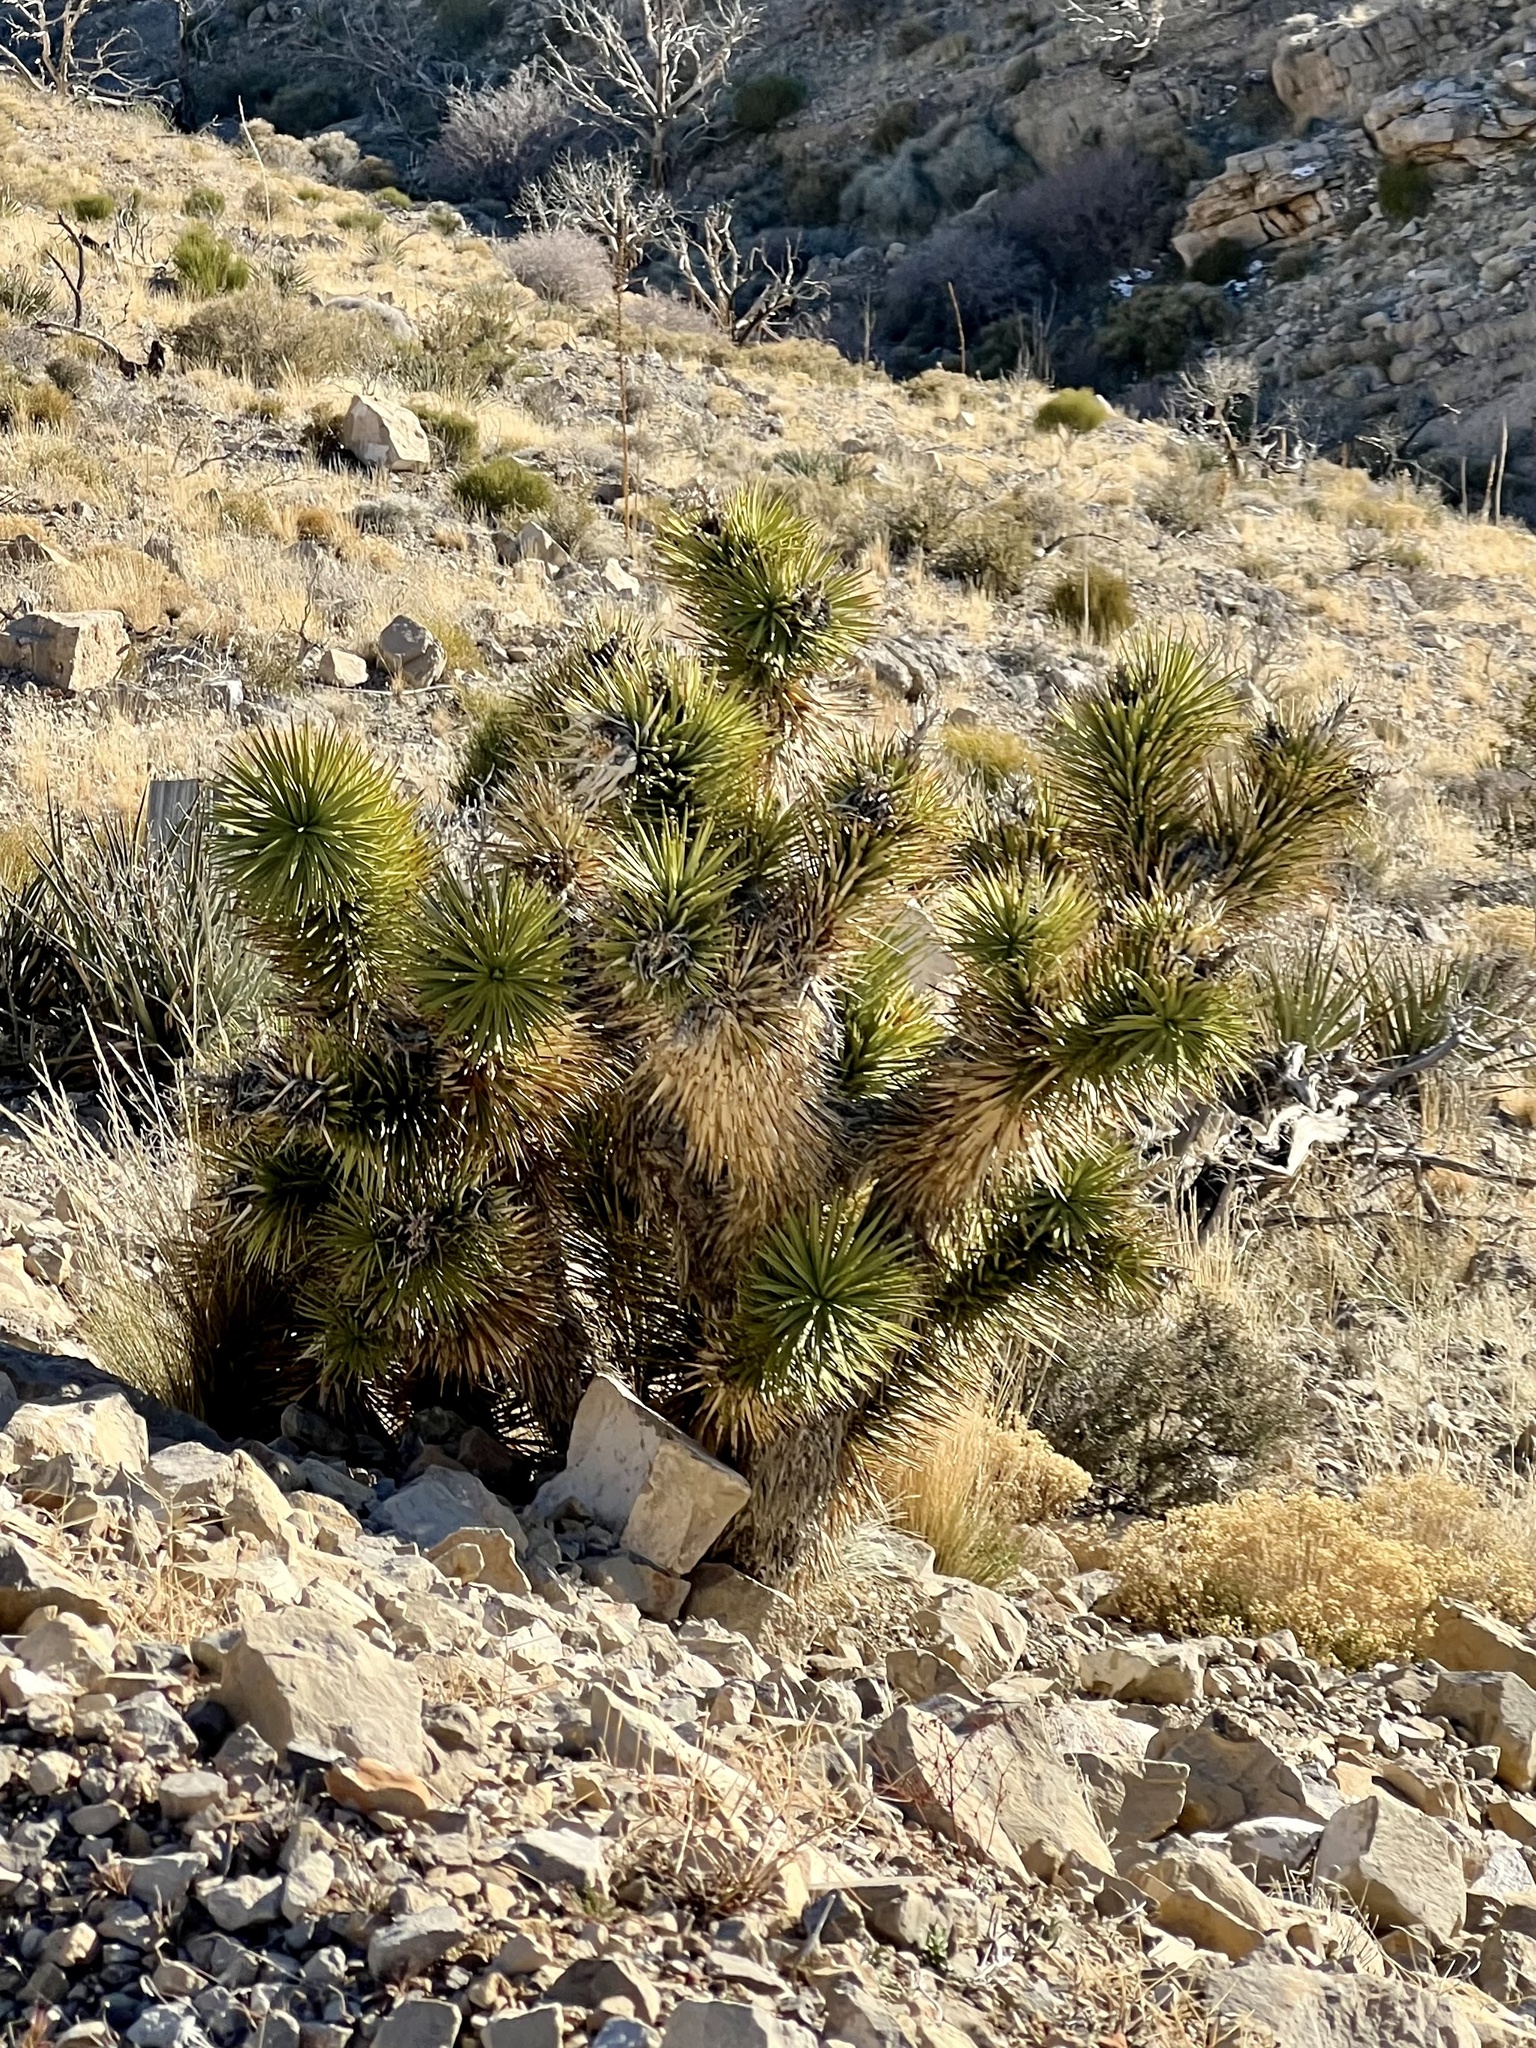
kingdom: Plantae
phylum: Tracheophyta
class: Liliopsida
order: Asparagales
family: Asparagaceae
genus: Yucca
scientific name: Yucca brevifolia
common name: Joshua tree
